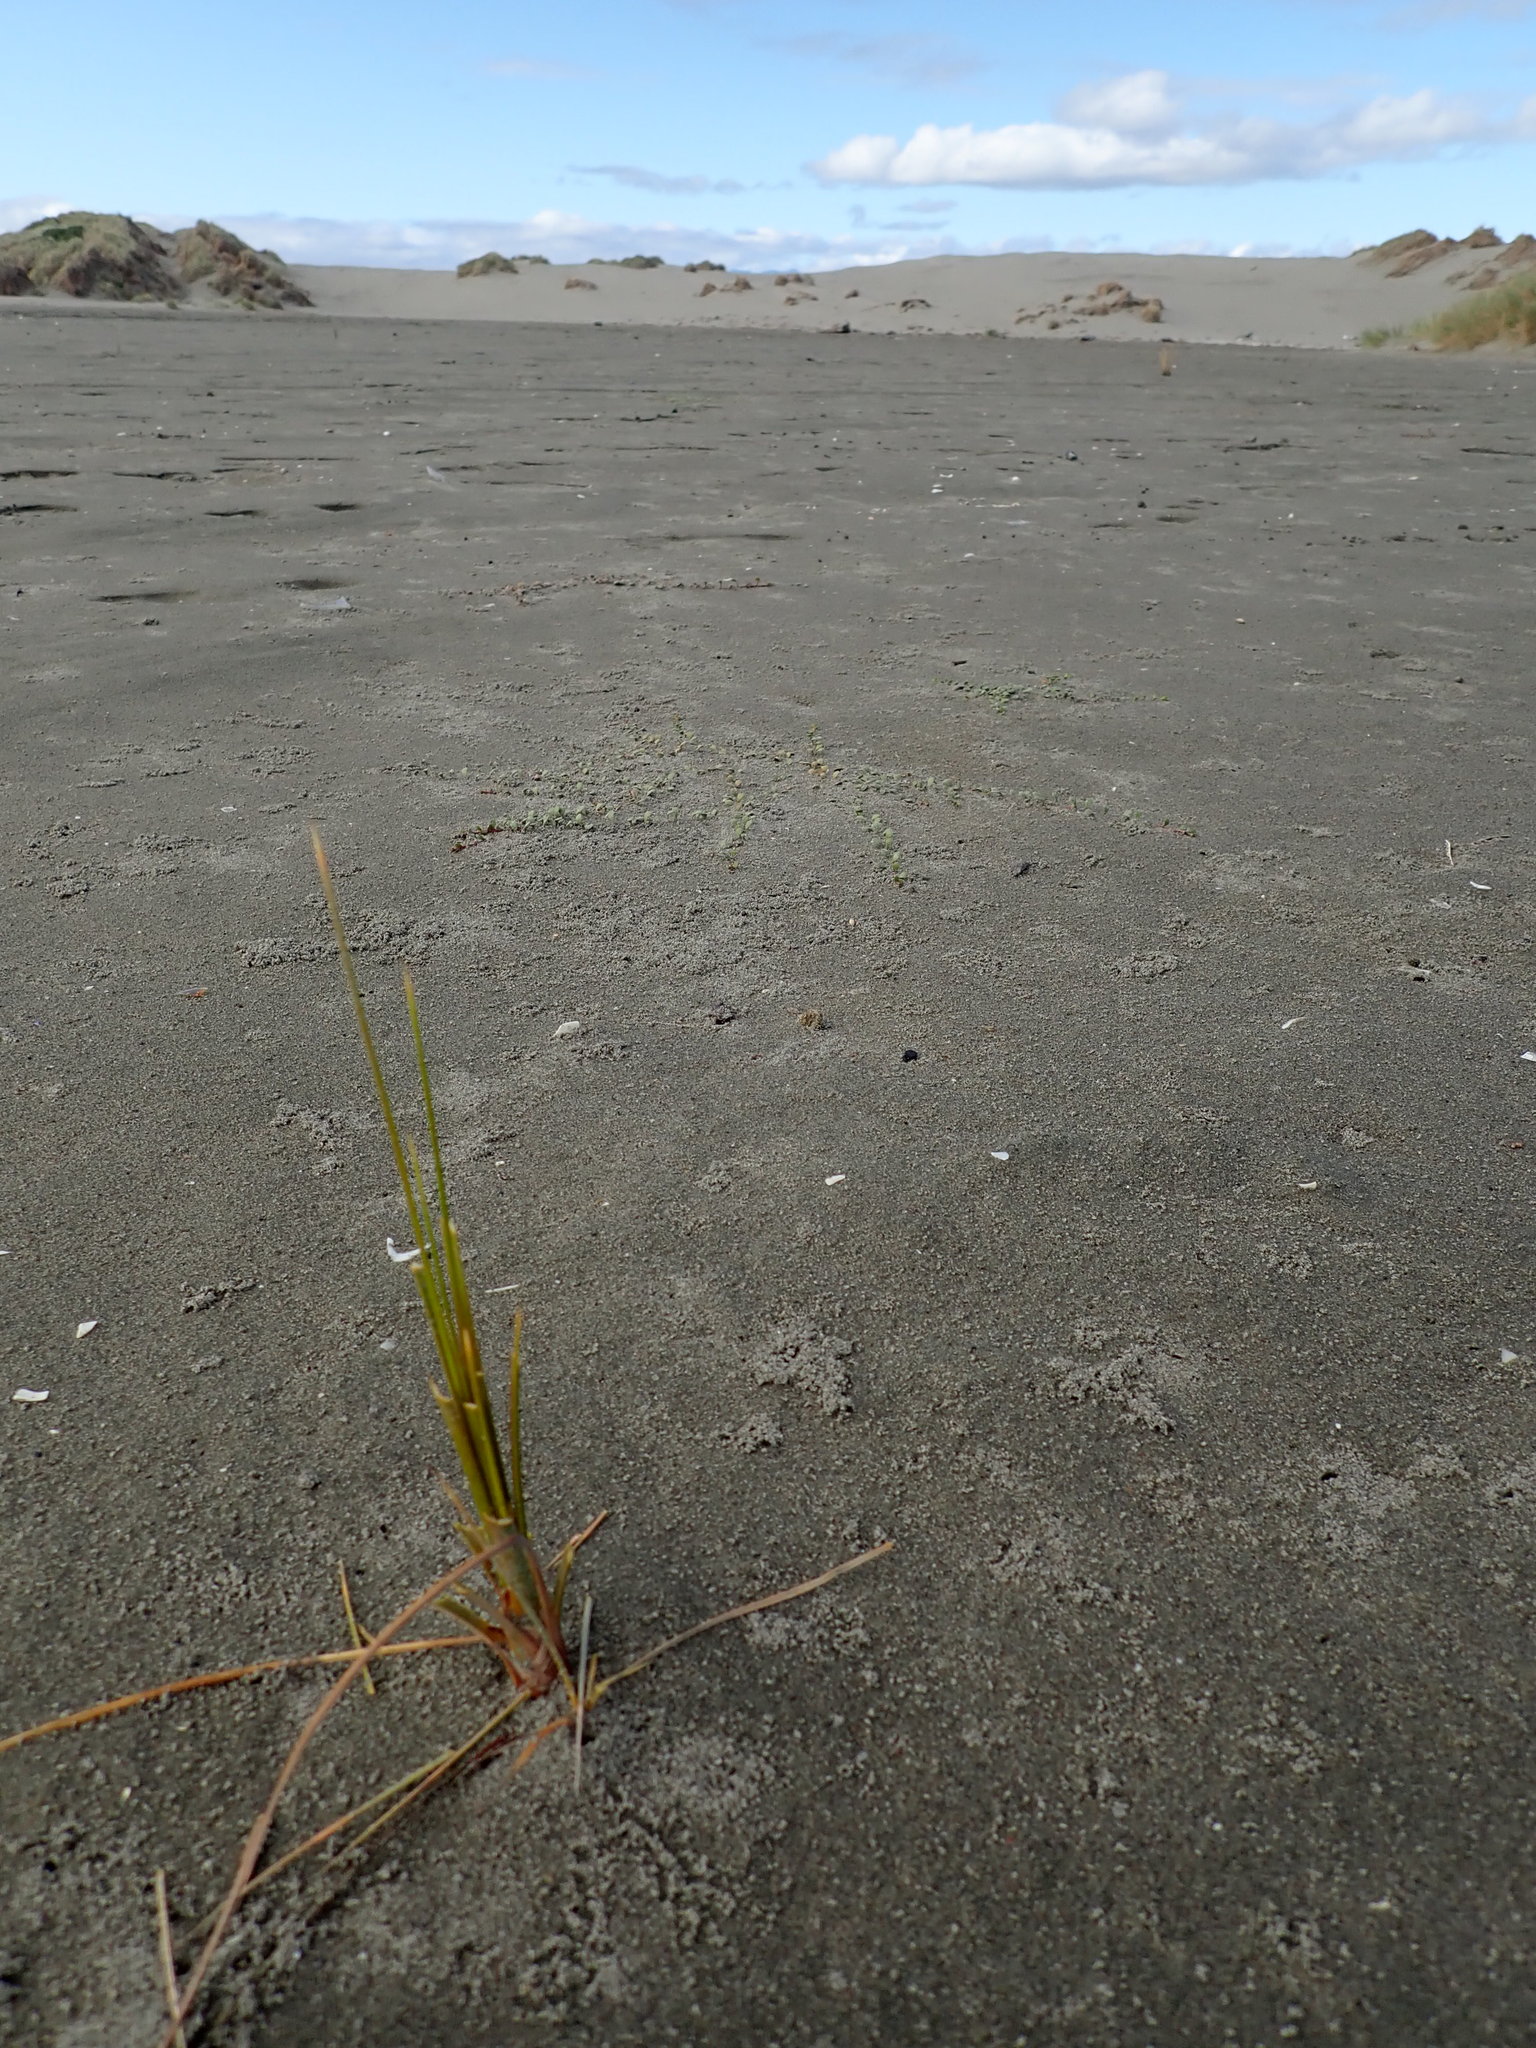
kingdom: Plantae
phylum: Tracheophyta
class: Liliopsida
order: Poales
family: Cyperaceae
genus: Ficinia
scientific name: Ficinia spiralis
